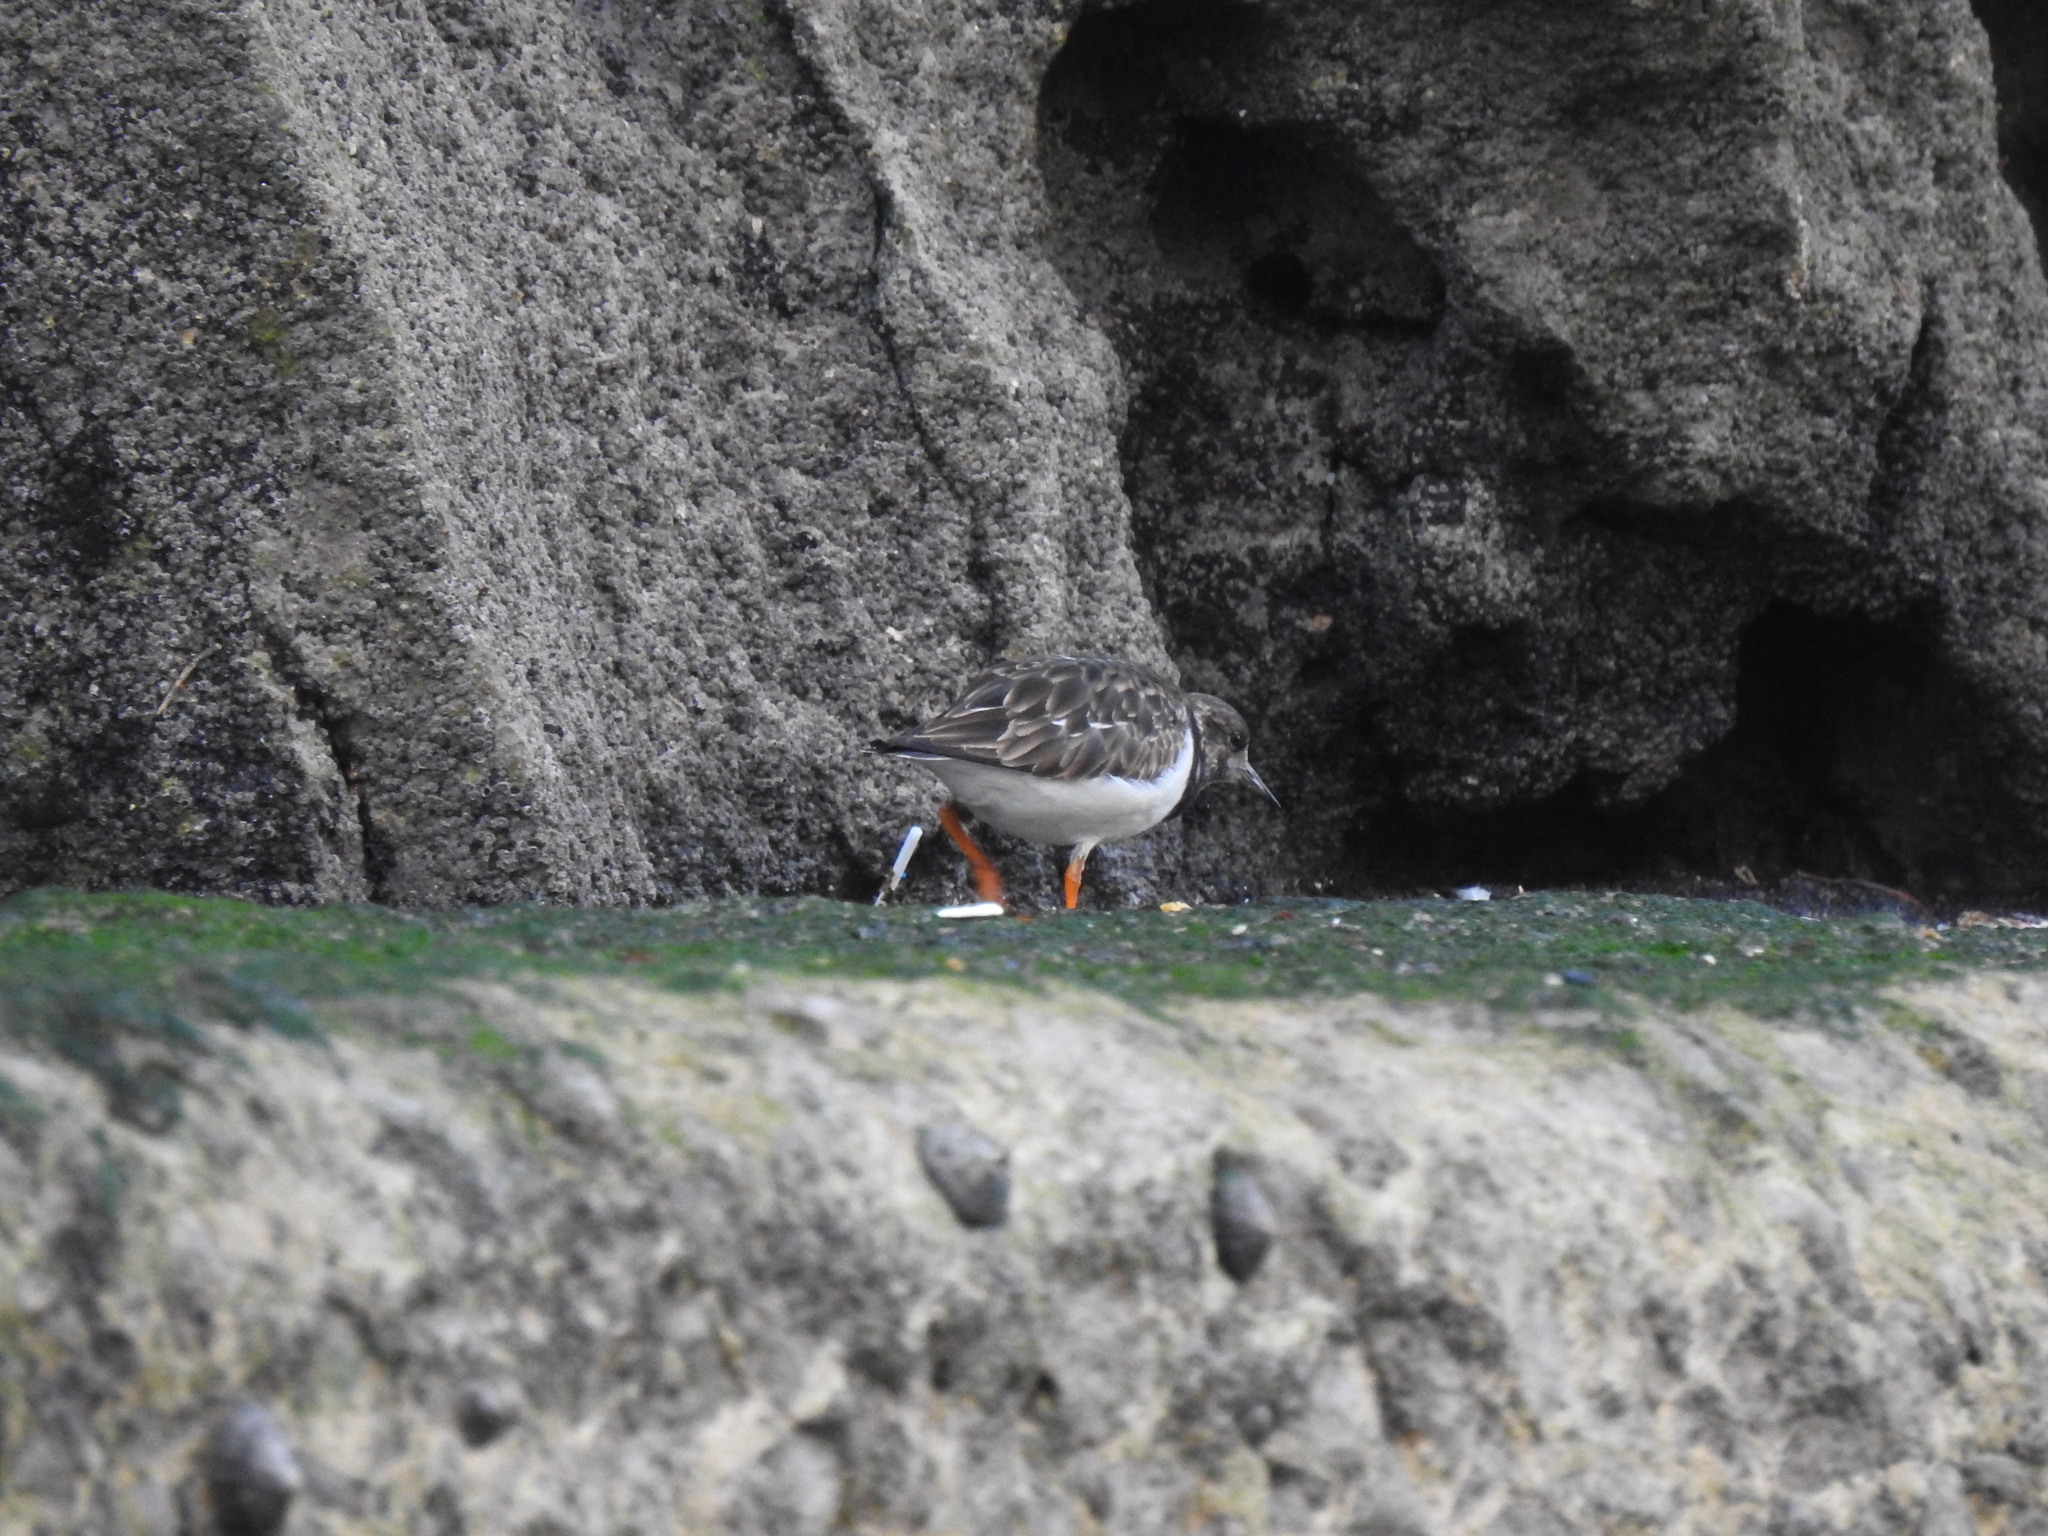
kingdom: Animalia
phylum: Chordata
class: Aves
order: Charadriiformes
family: Scolopacidae
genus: Arenaria
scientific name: Arenaria interpres
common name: Ruddy turnstone
